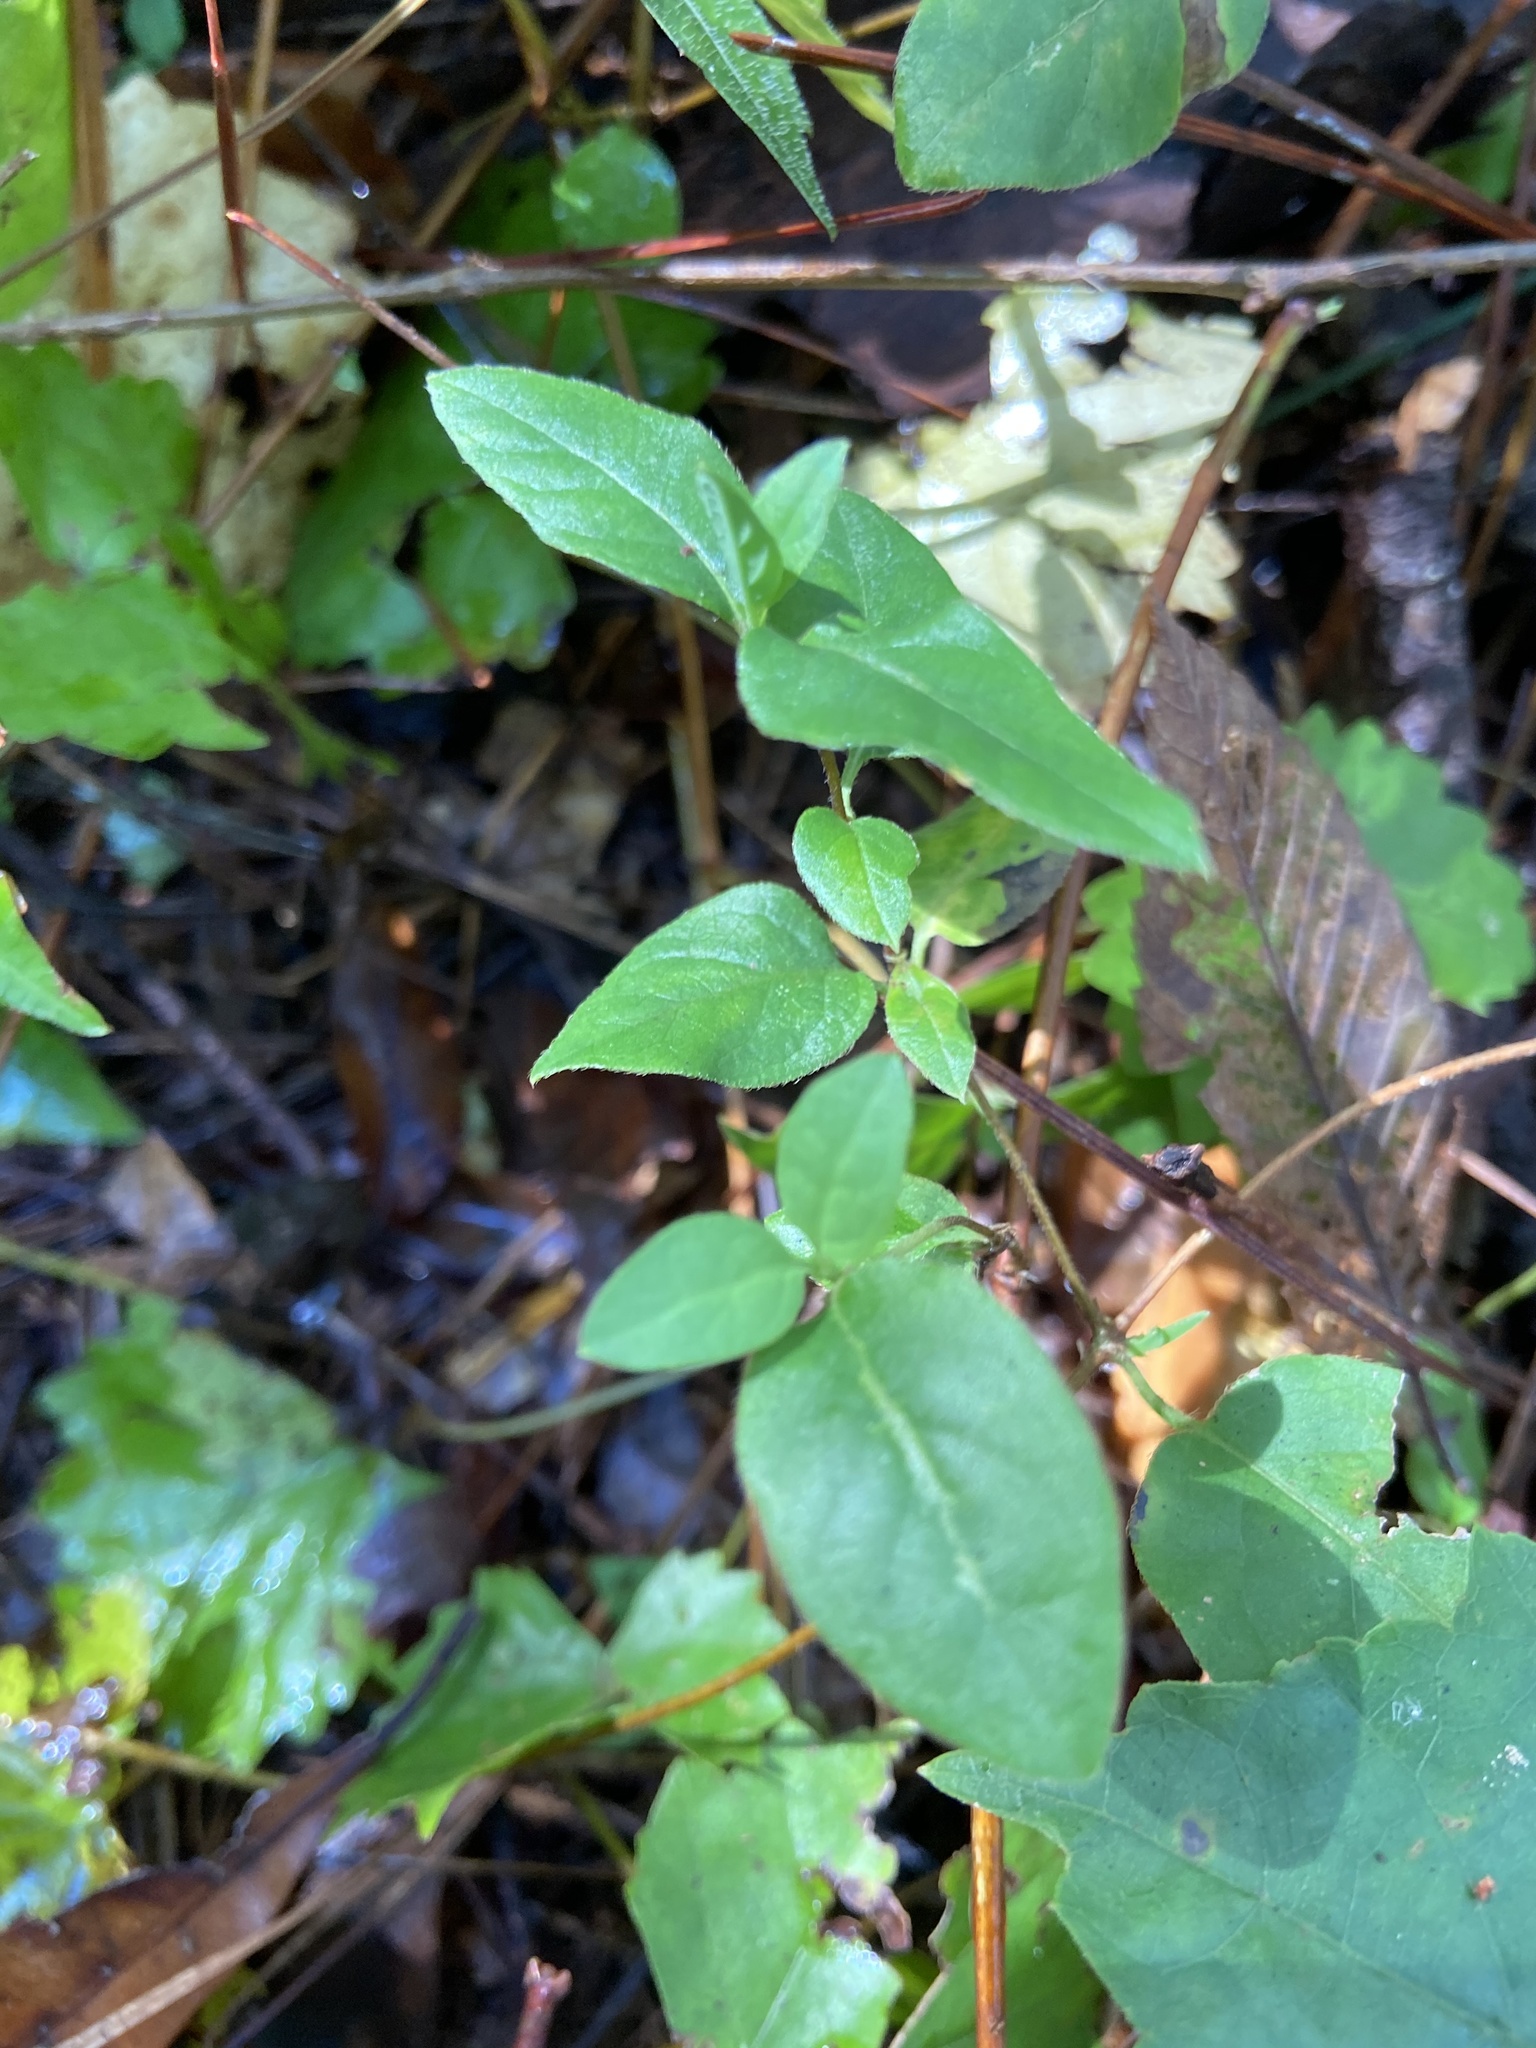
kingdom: Plantae
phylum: Tracheophyta
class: Magnoliopsida
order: Dipsacales
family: Caprifoliaceae
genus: Lonicera
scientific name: Lonicera japonica
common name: Japanese honeysuckle
